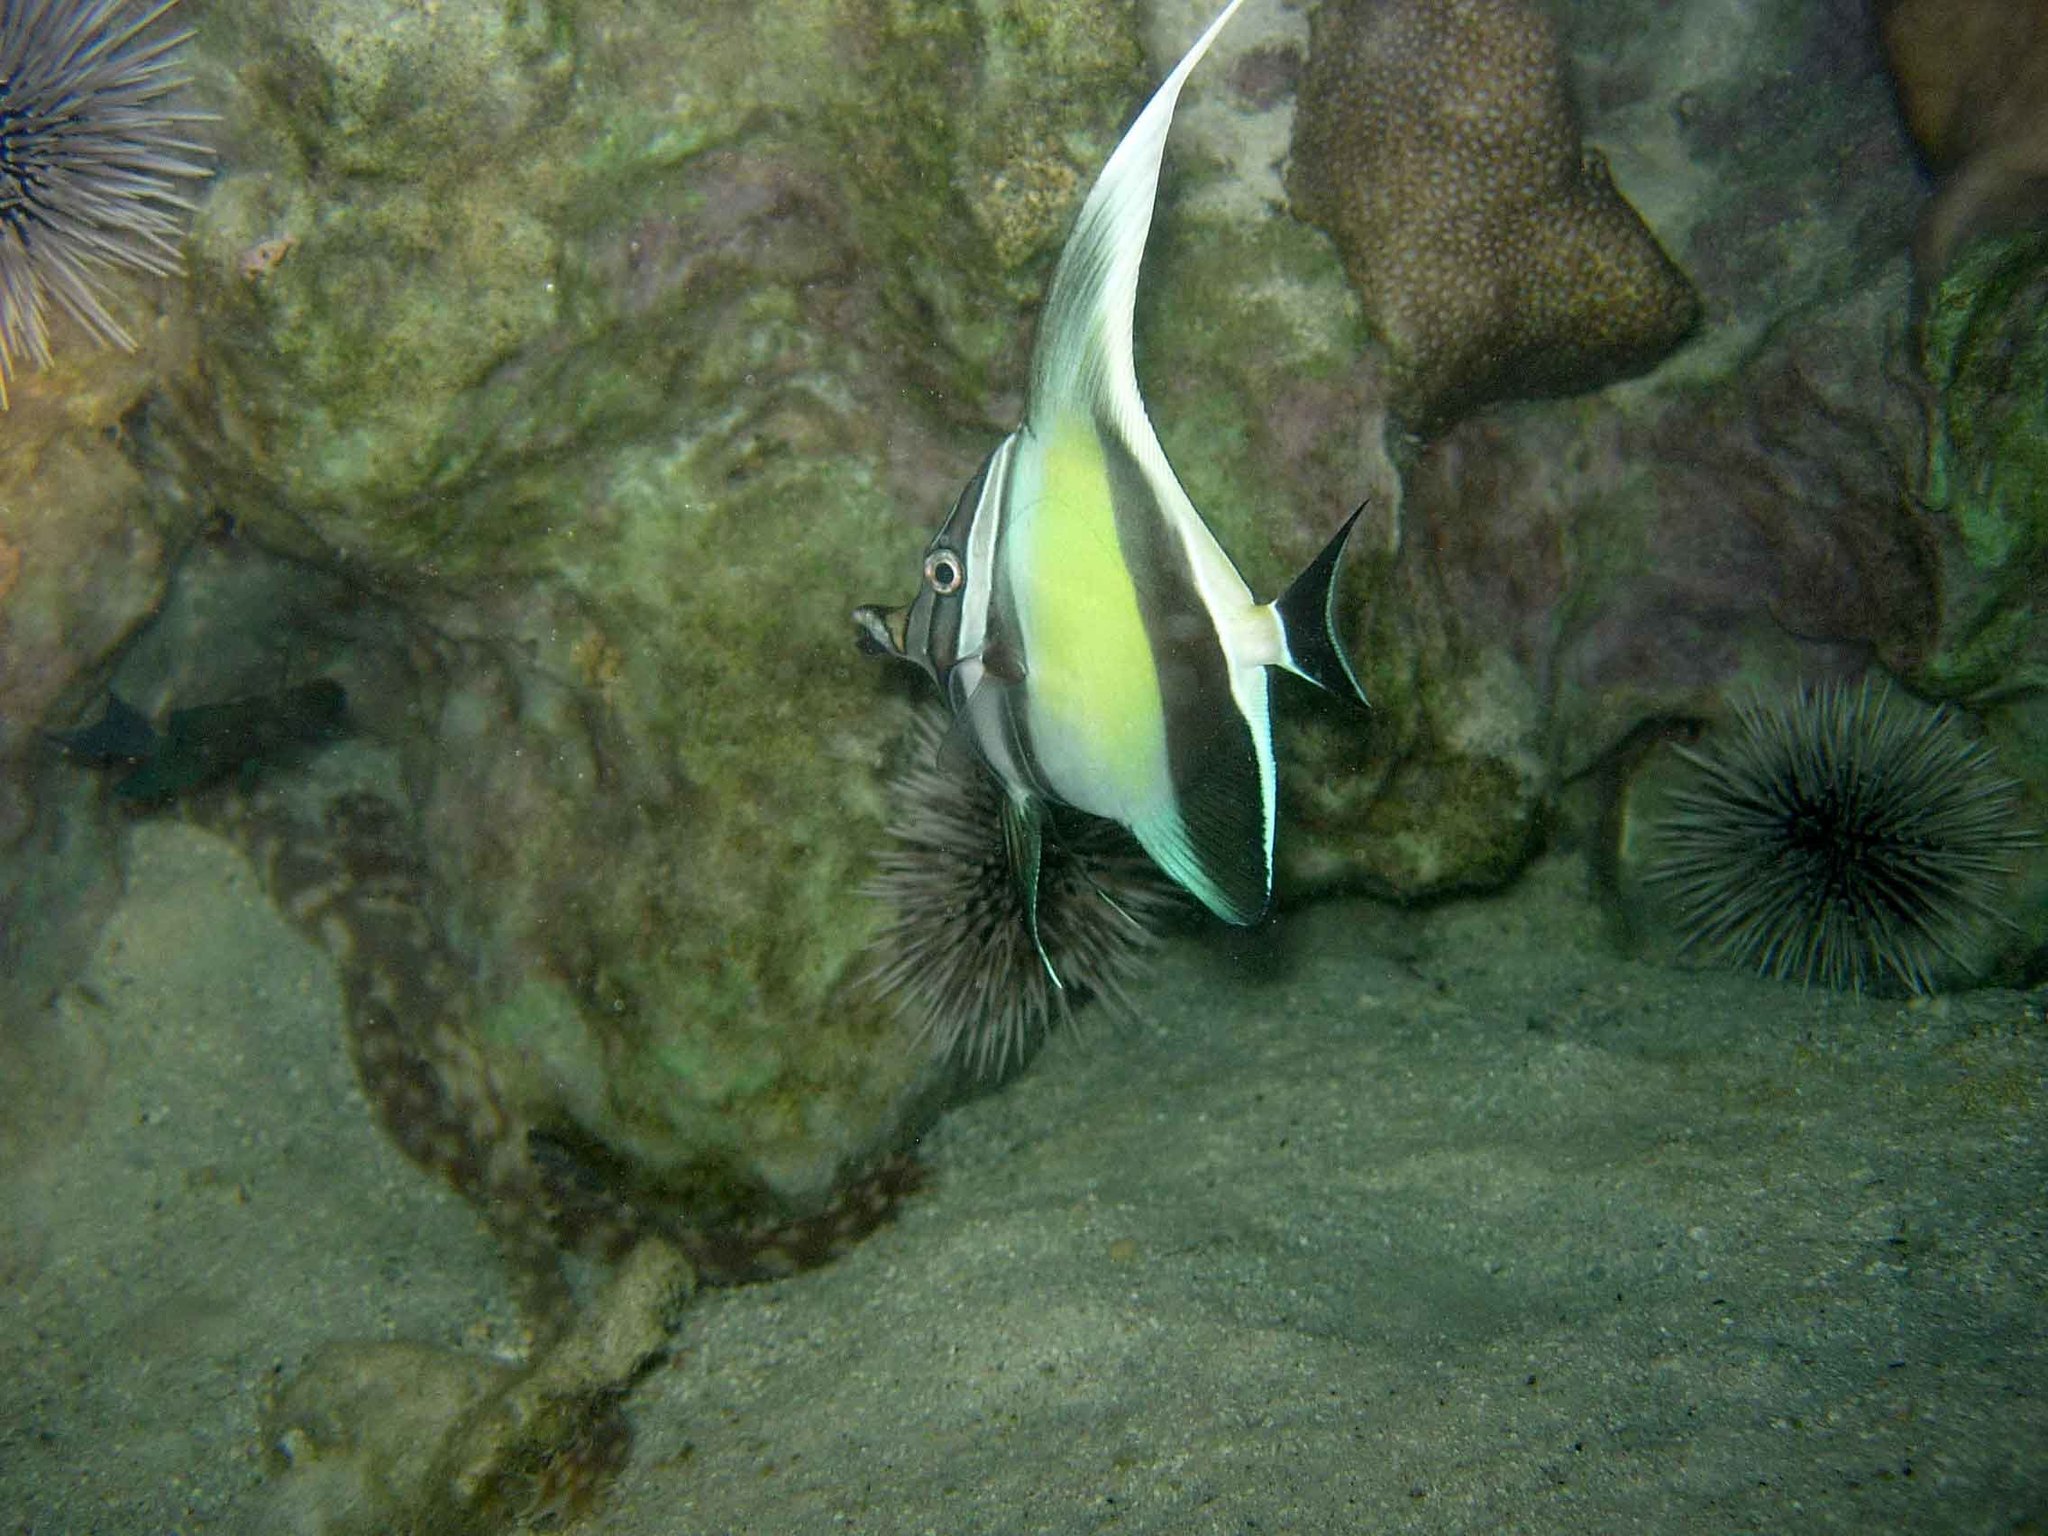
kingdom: Animalia
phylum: Chordata
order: Perciformes
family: Zanclidae
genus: Zanclus
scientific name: Zanclus cornutus
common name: Moorish idol
